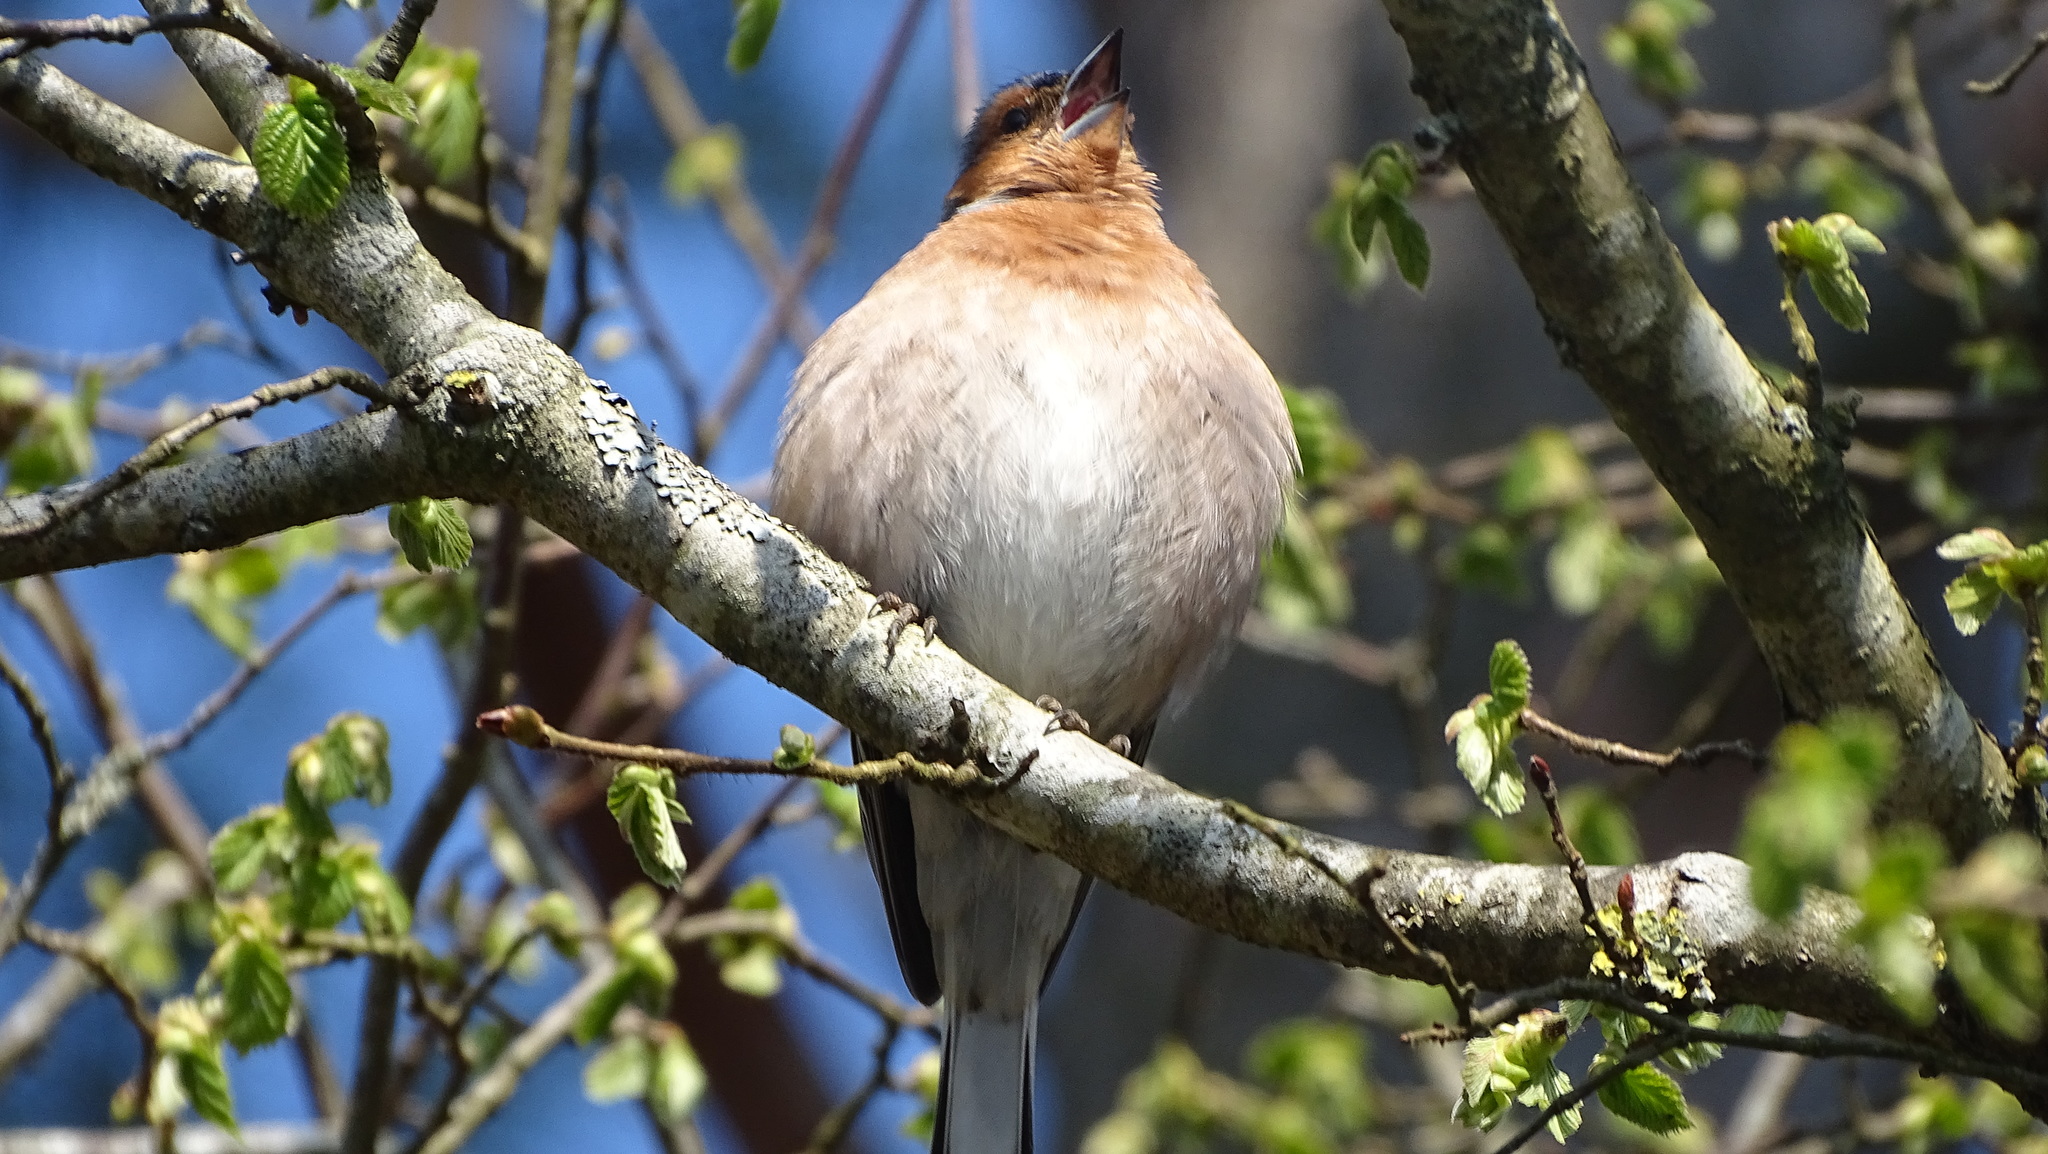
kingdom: Animalia
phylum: Chordata
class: Aves
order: Passeriformes
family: Fringillidae
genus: Fringilla
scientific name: Fringilla coelebs
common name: Common chaffinch
